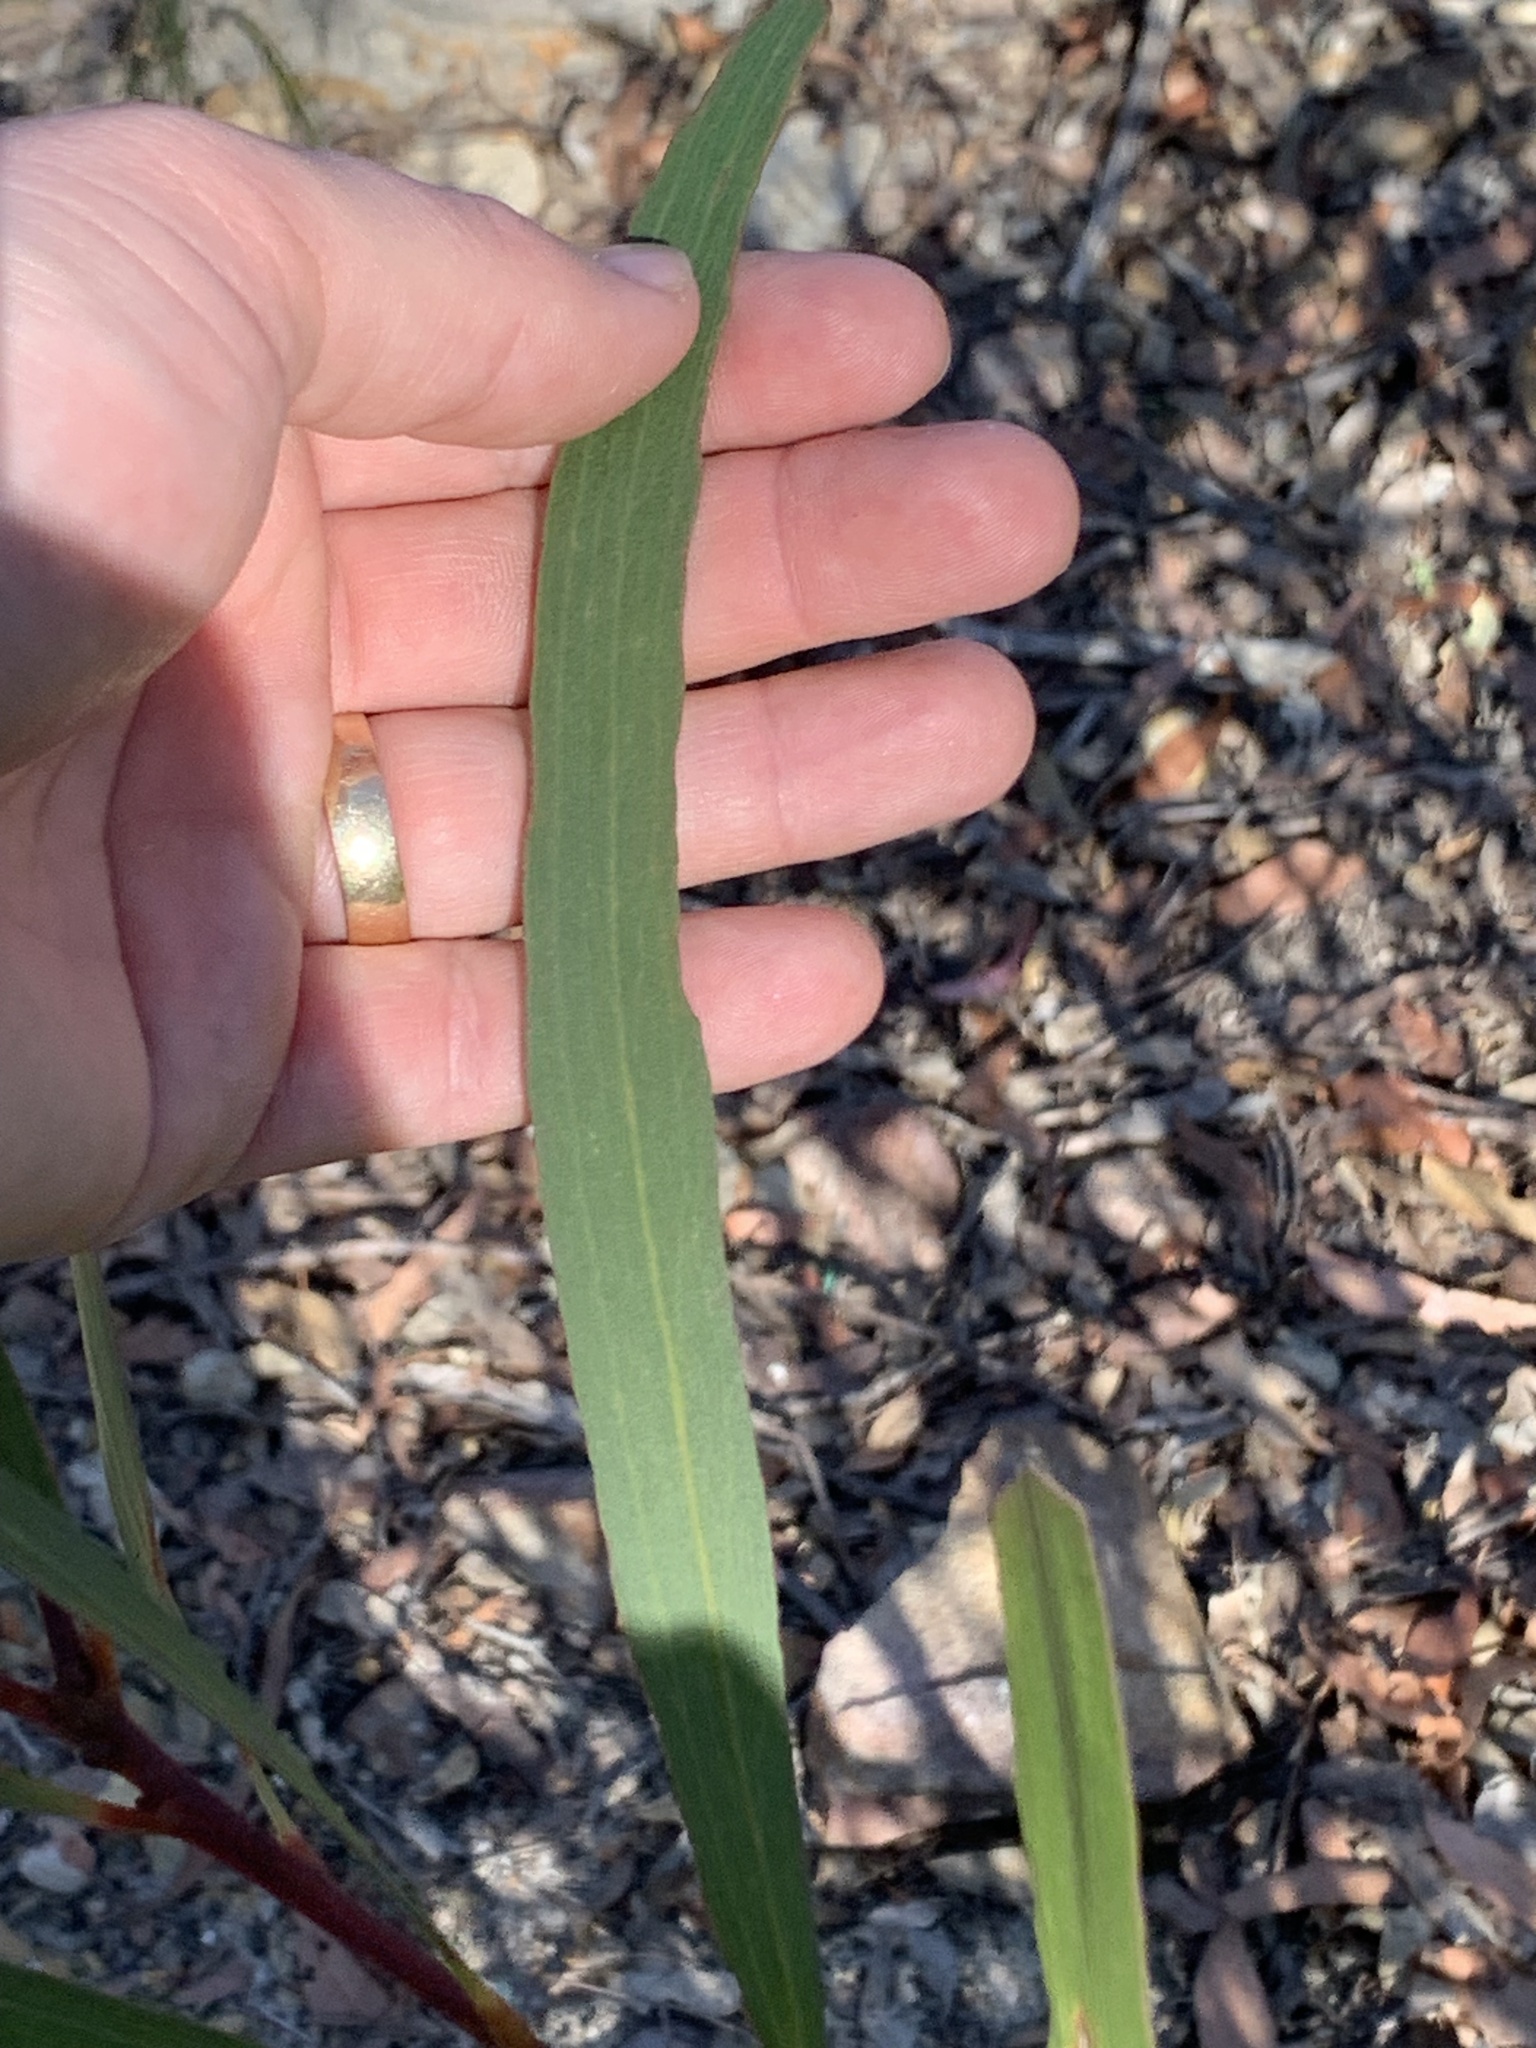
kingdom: Plantae
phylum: Tracheophyta
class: Magnoliopsida
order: Fabales
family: Fabaceae
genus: Acacia
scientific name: Acacia obtusifolia
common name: Stiff-leaf wattle
